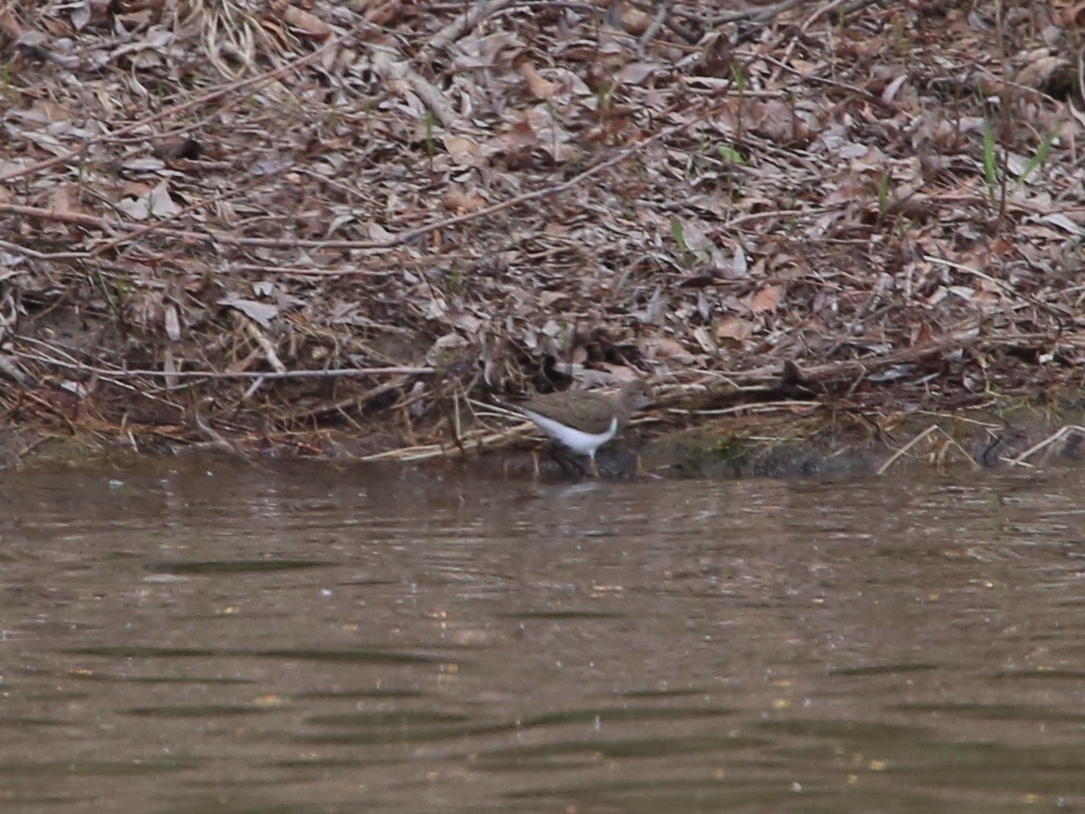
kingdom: Animalia
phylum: Chordata
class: Aves
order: Charadriiformes
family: Scolopacidae
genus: Actitis
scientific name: Actitis hypoleucos
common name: Common sandpiper
